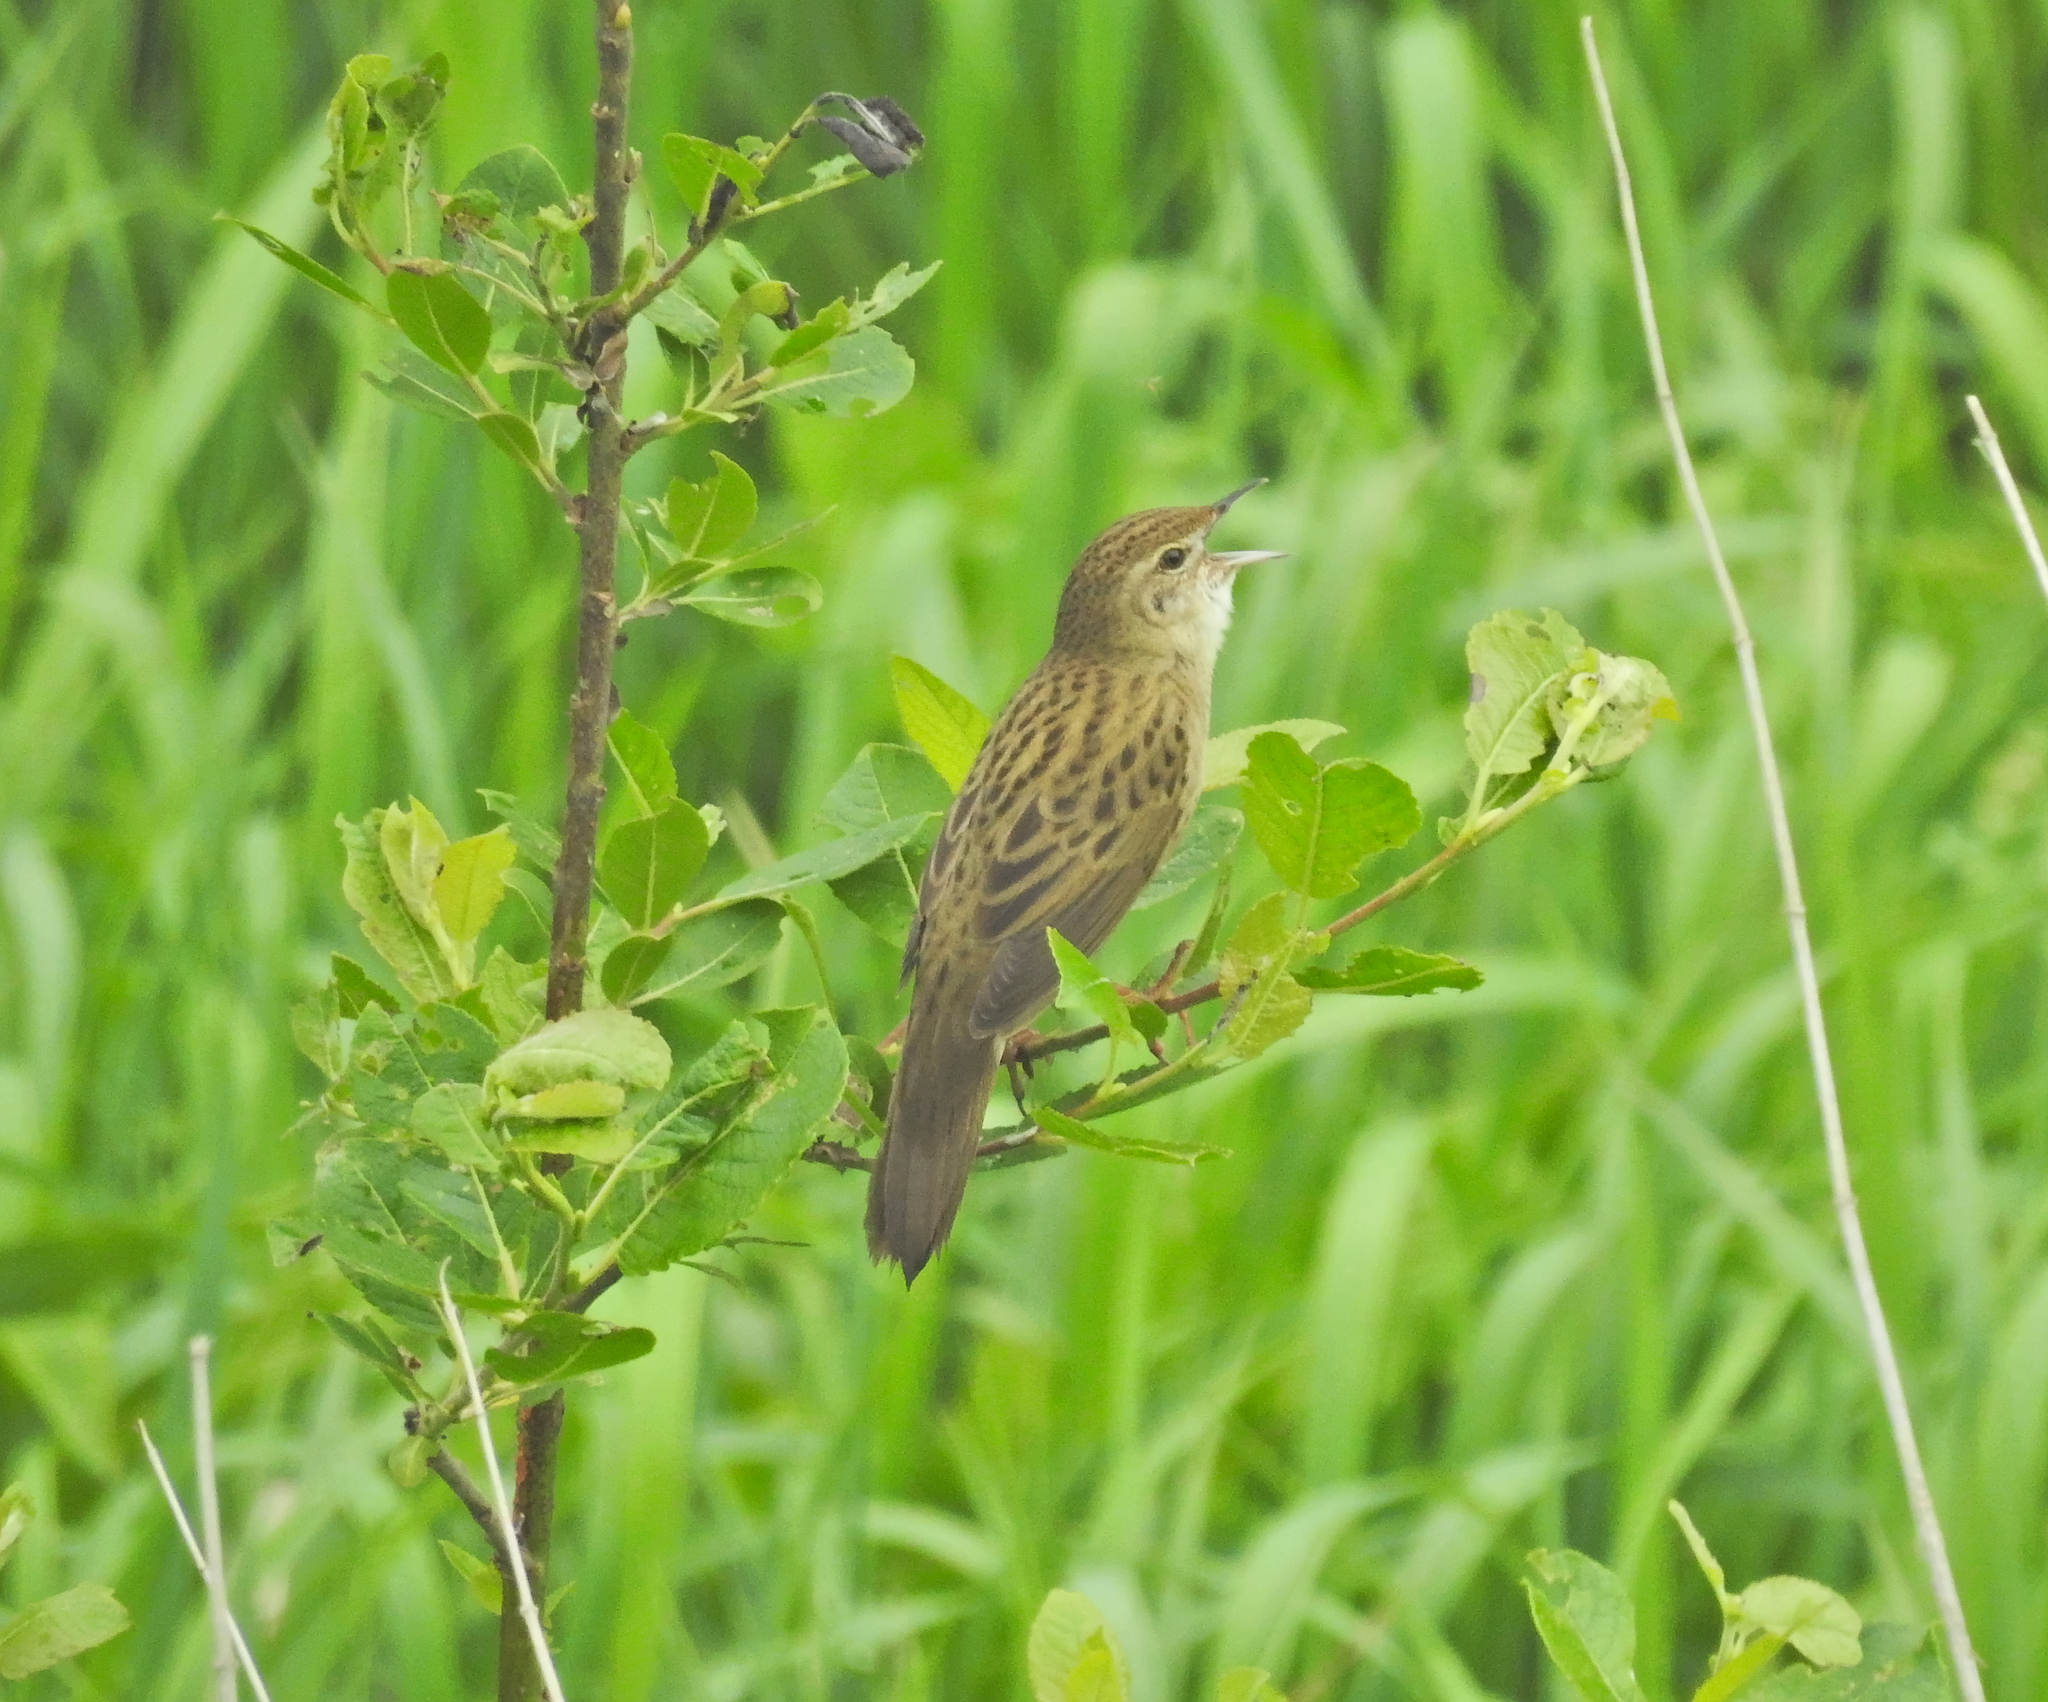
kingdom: Animalia
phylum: Chordata
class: Aves
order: Passeriformes
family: Locustellidae
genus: Locustella
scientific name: Locustella naevia
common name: Common grasshopper warbler
